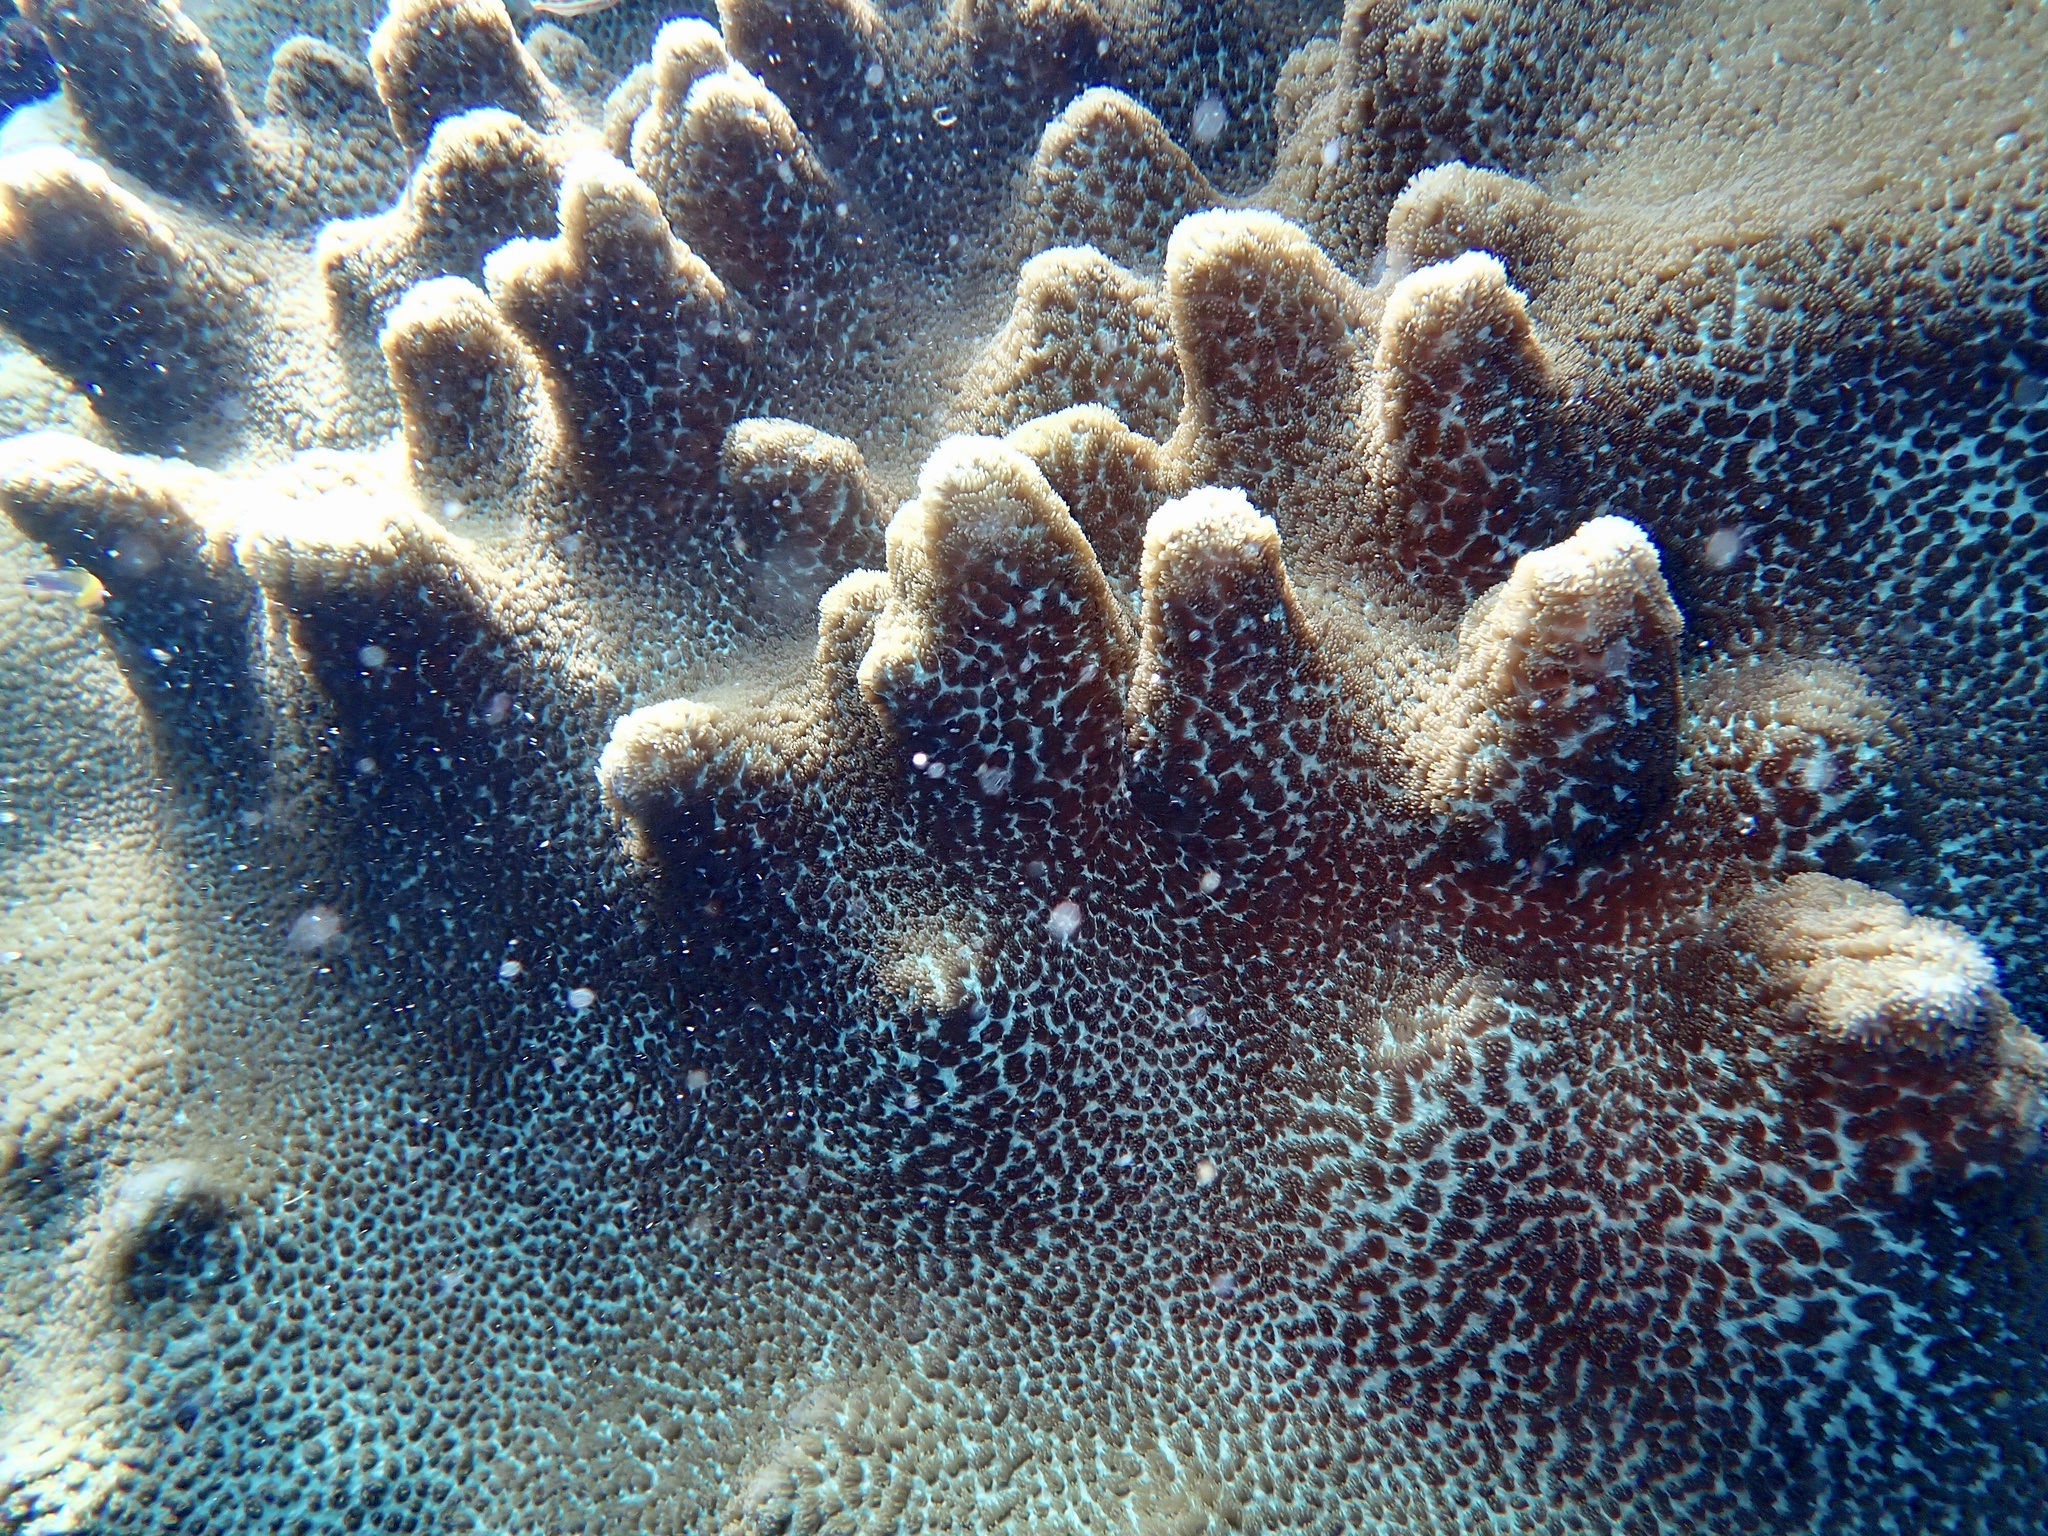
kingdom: Animalia
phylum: Cnidaria
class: Anthozoa
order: Scleractinia
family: Merulinidae
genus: Hydnophora
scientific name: Hydnophora exesa
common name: Spine coral
